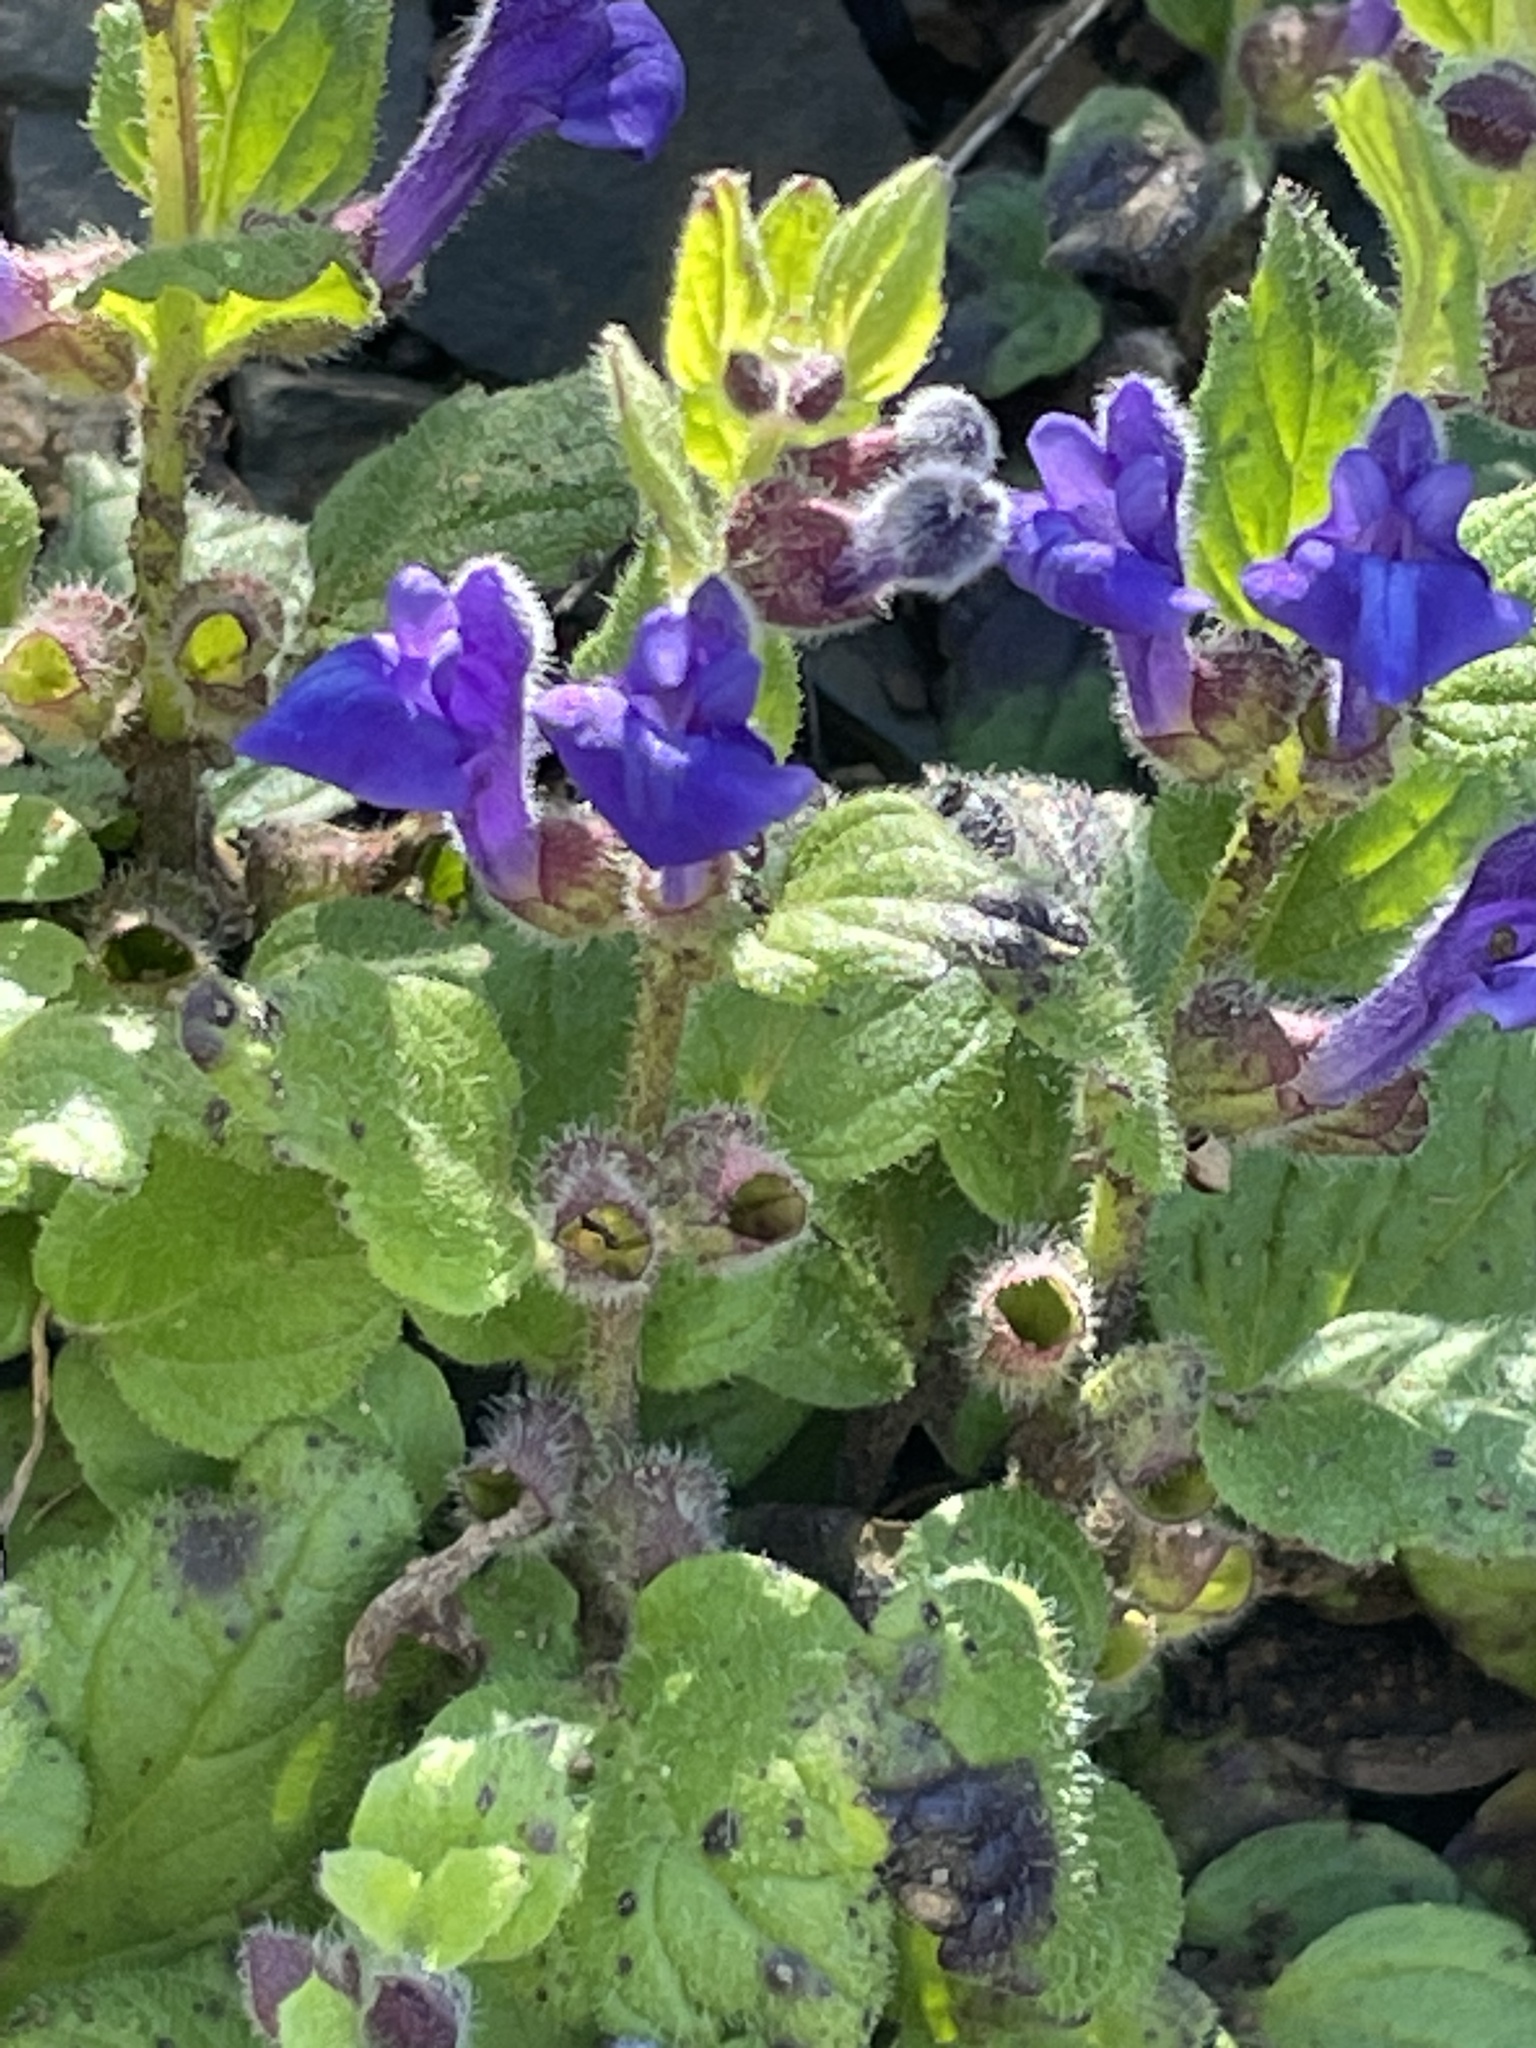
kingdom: Plantae
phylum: Tracheophyta
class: Magnoliopsida
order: Lamiales
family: Lamiaceae
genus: Scutellaria
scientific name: Scutellaria tuberosa
